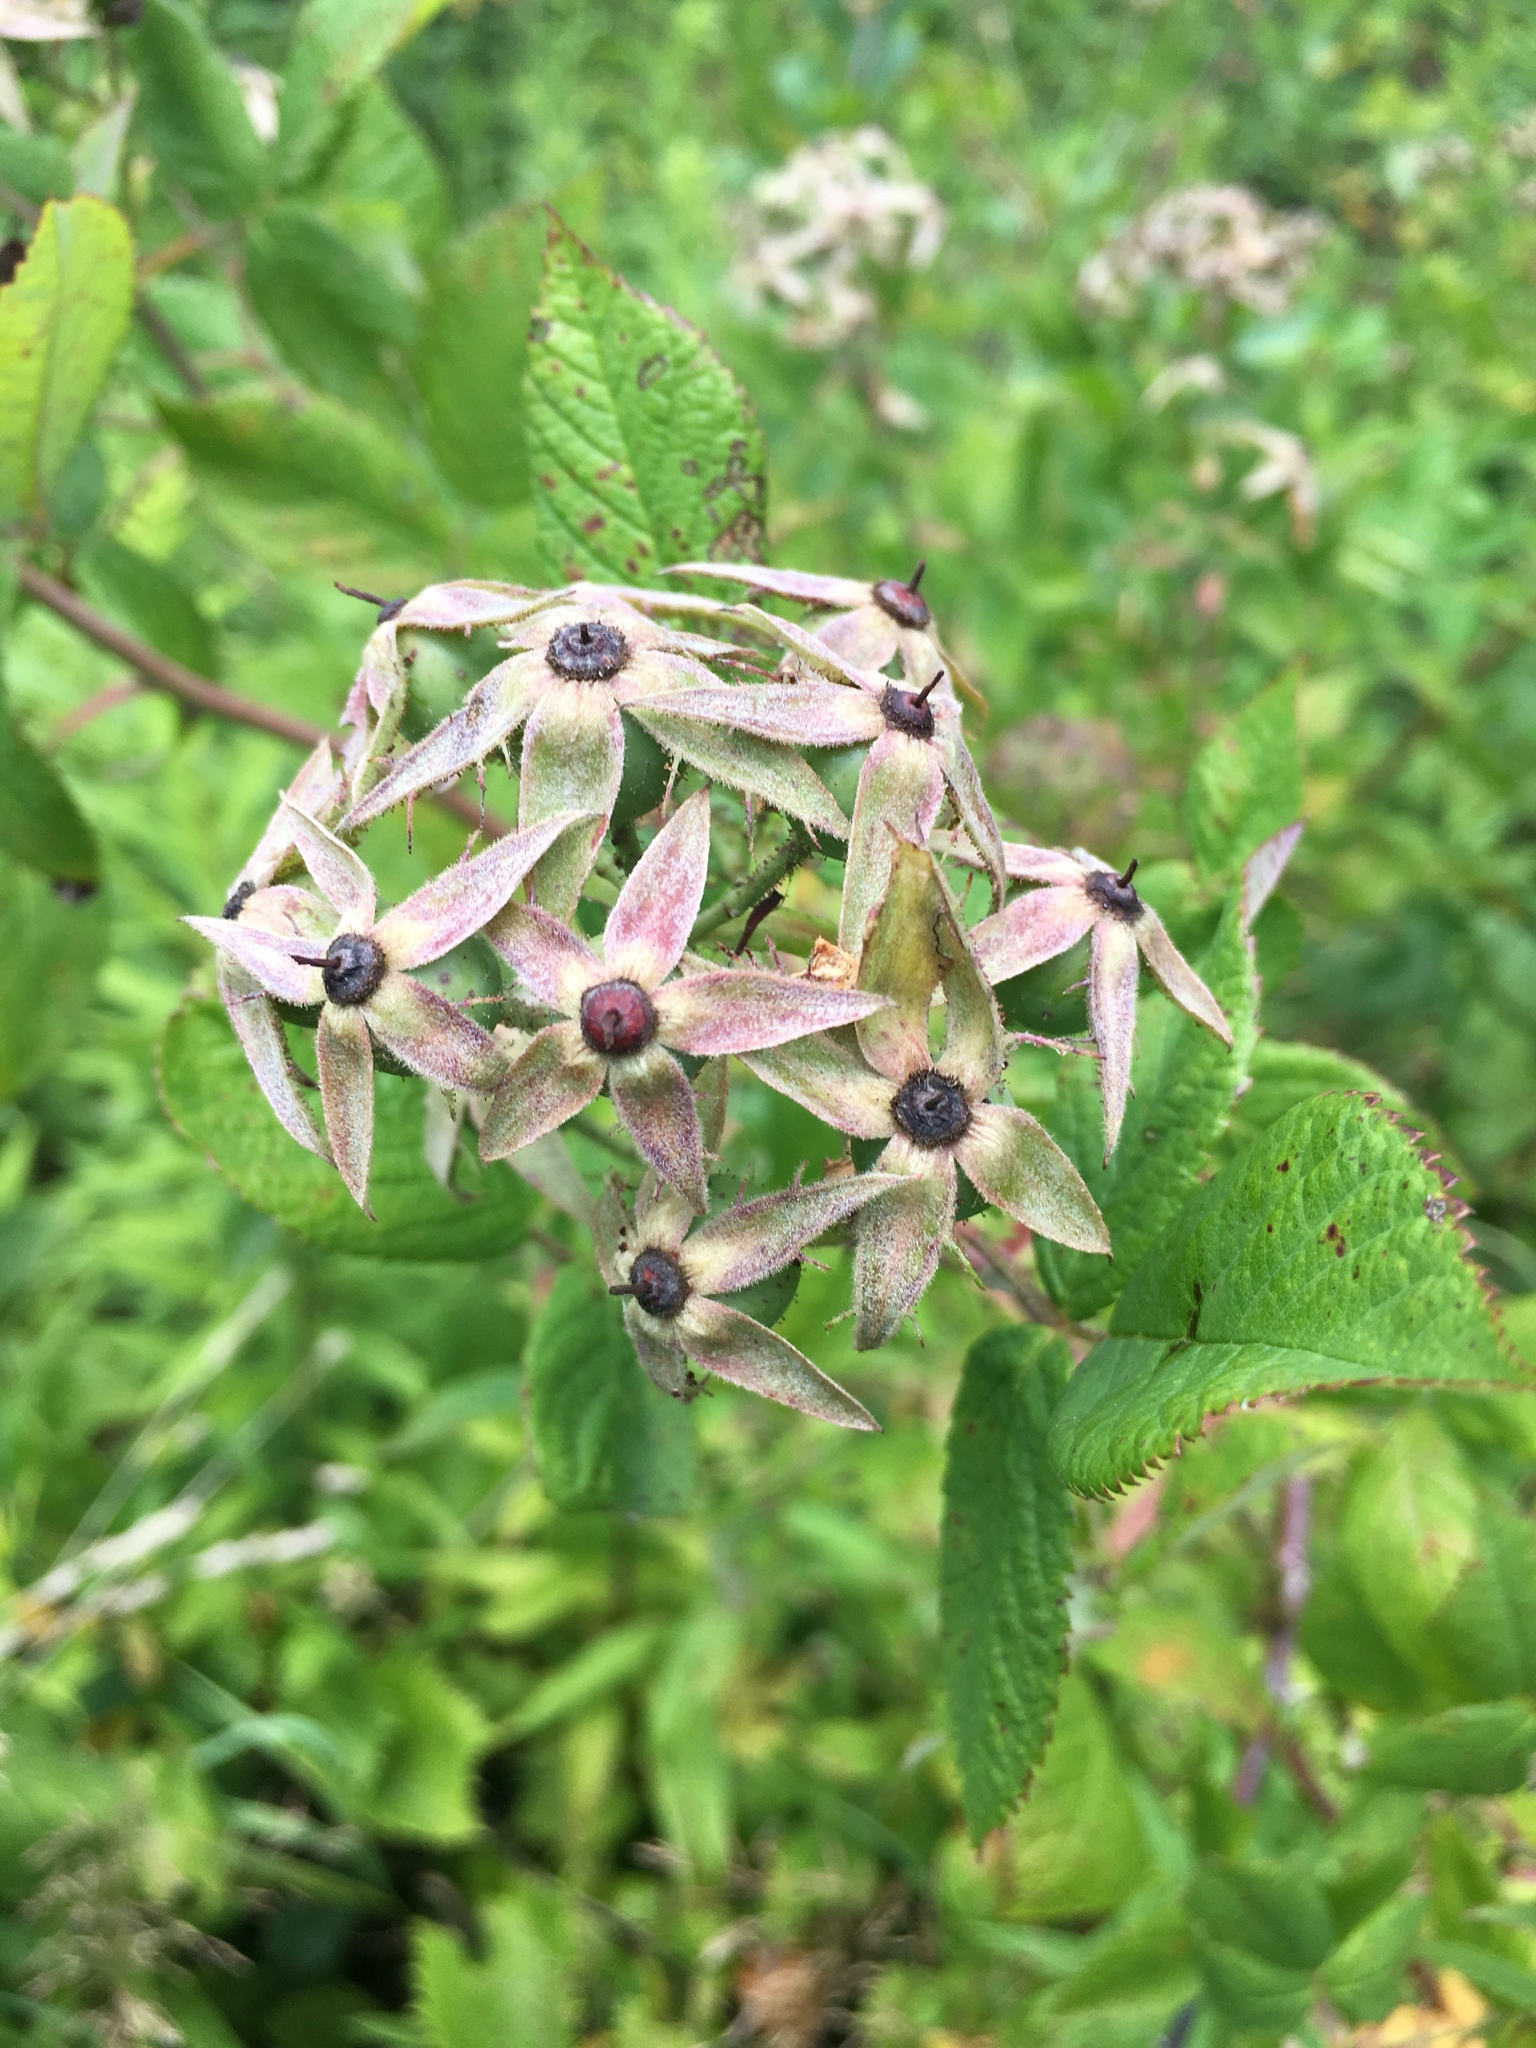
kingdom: Plantae
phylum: Tracheophyta
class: Magnoliopsida
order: Rosales
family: Rosaceae
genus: Rosa
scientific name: Rosa setigera
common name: Prairie rose
